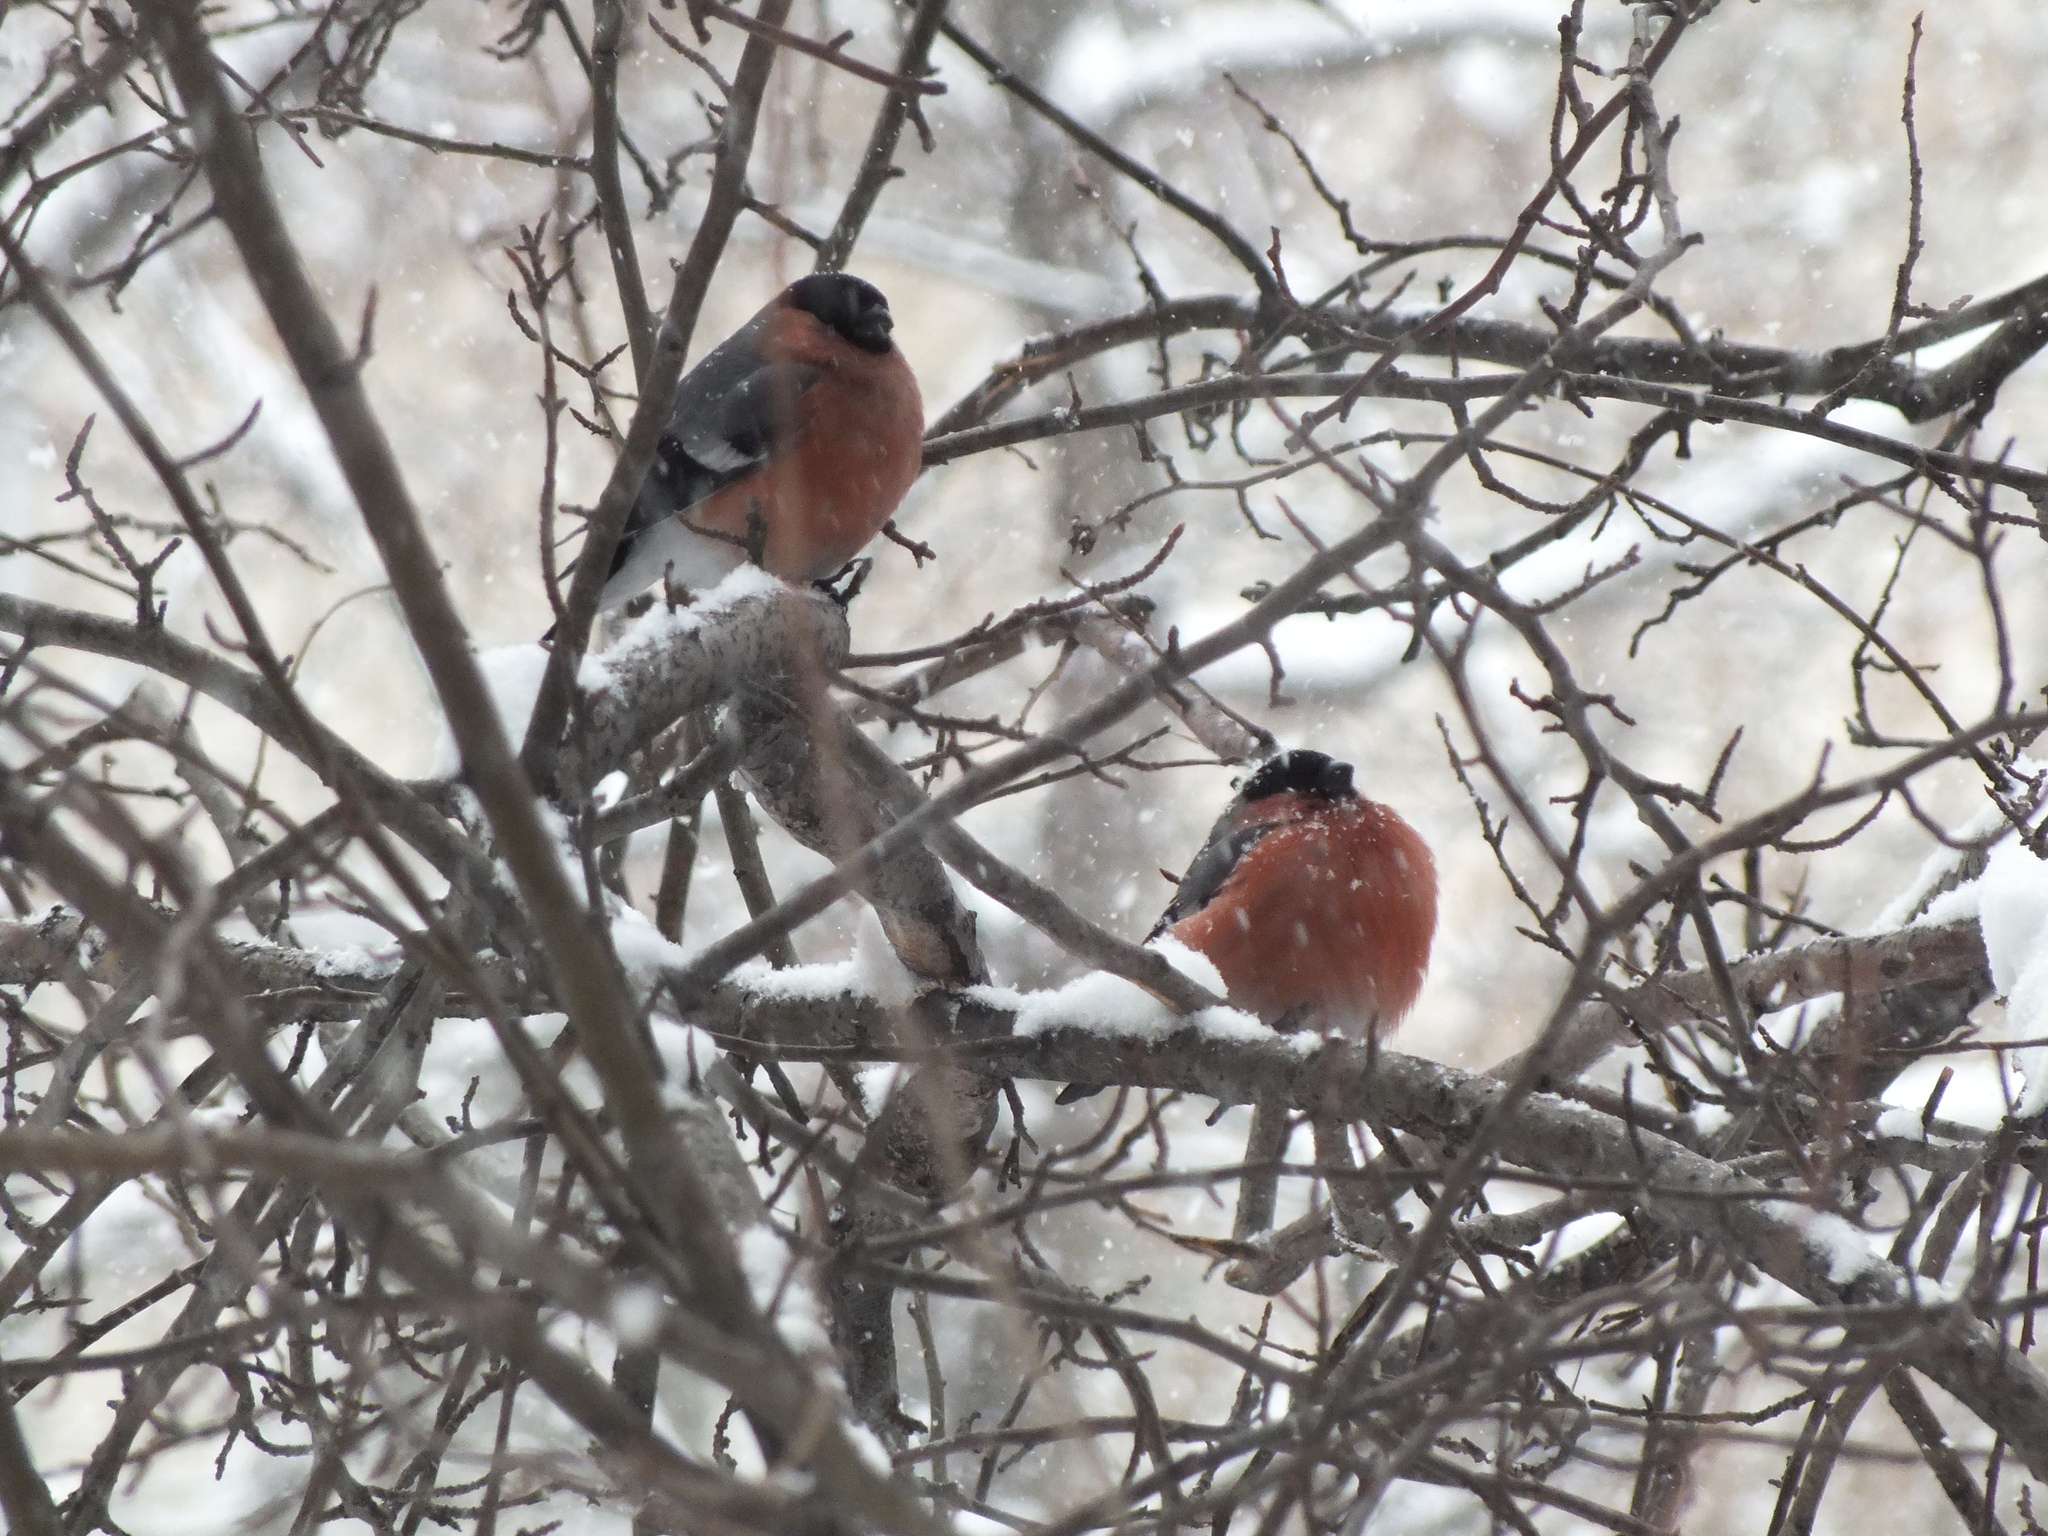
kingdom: Animalia
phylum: Chordata
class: Aves
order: Passeriformes
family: Fringillidae
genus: Pyrrhula
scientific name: Pyrrhula pyrrhula
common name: Eurasian bullfinch
